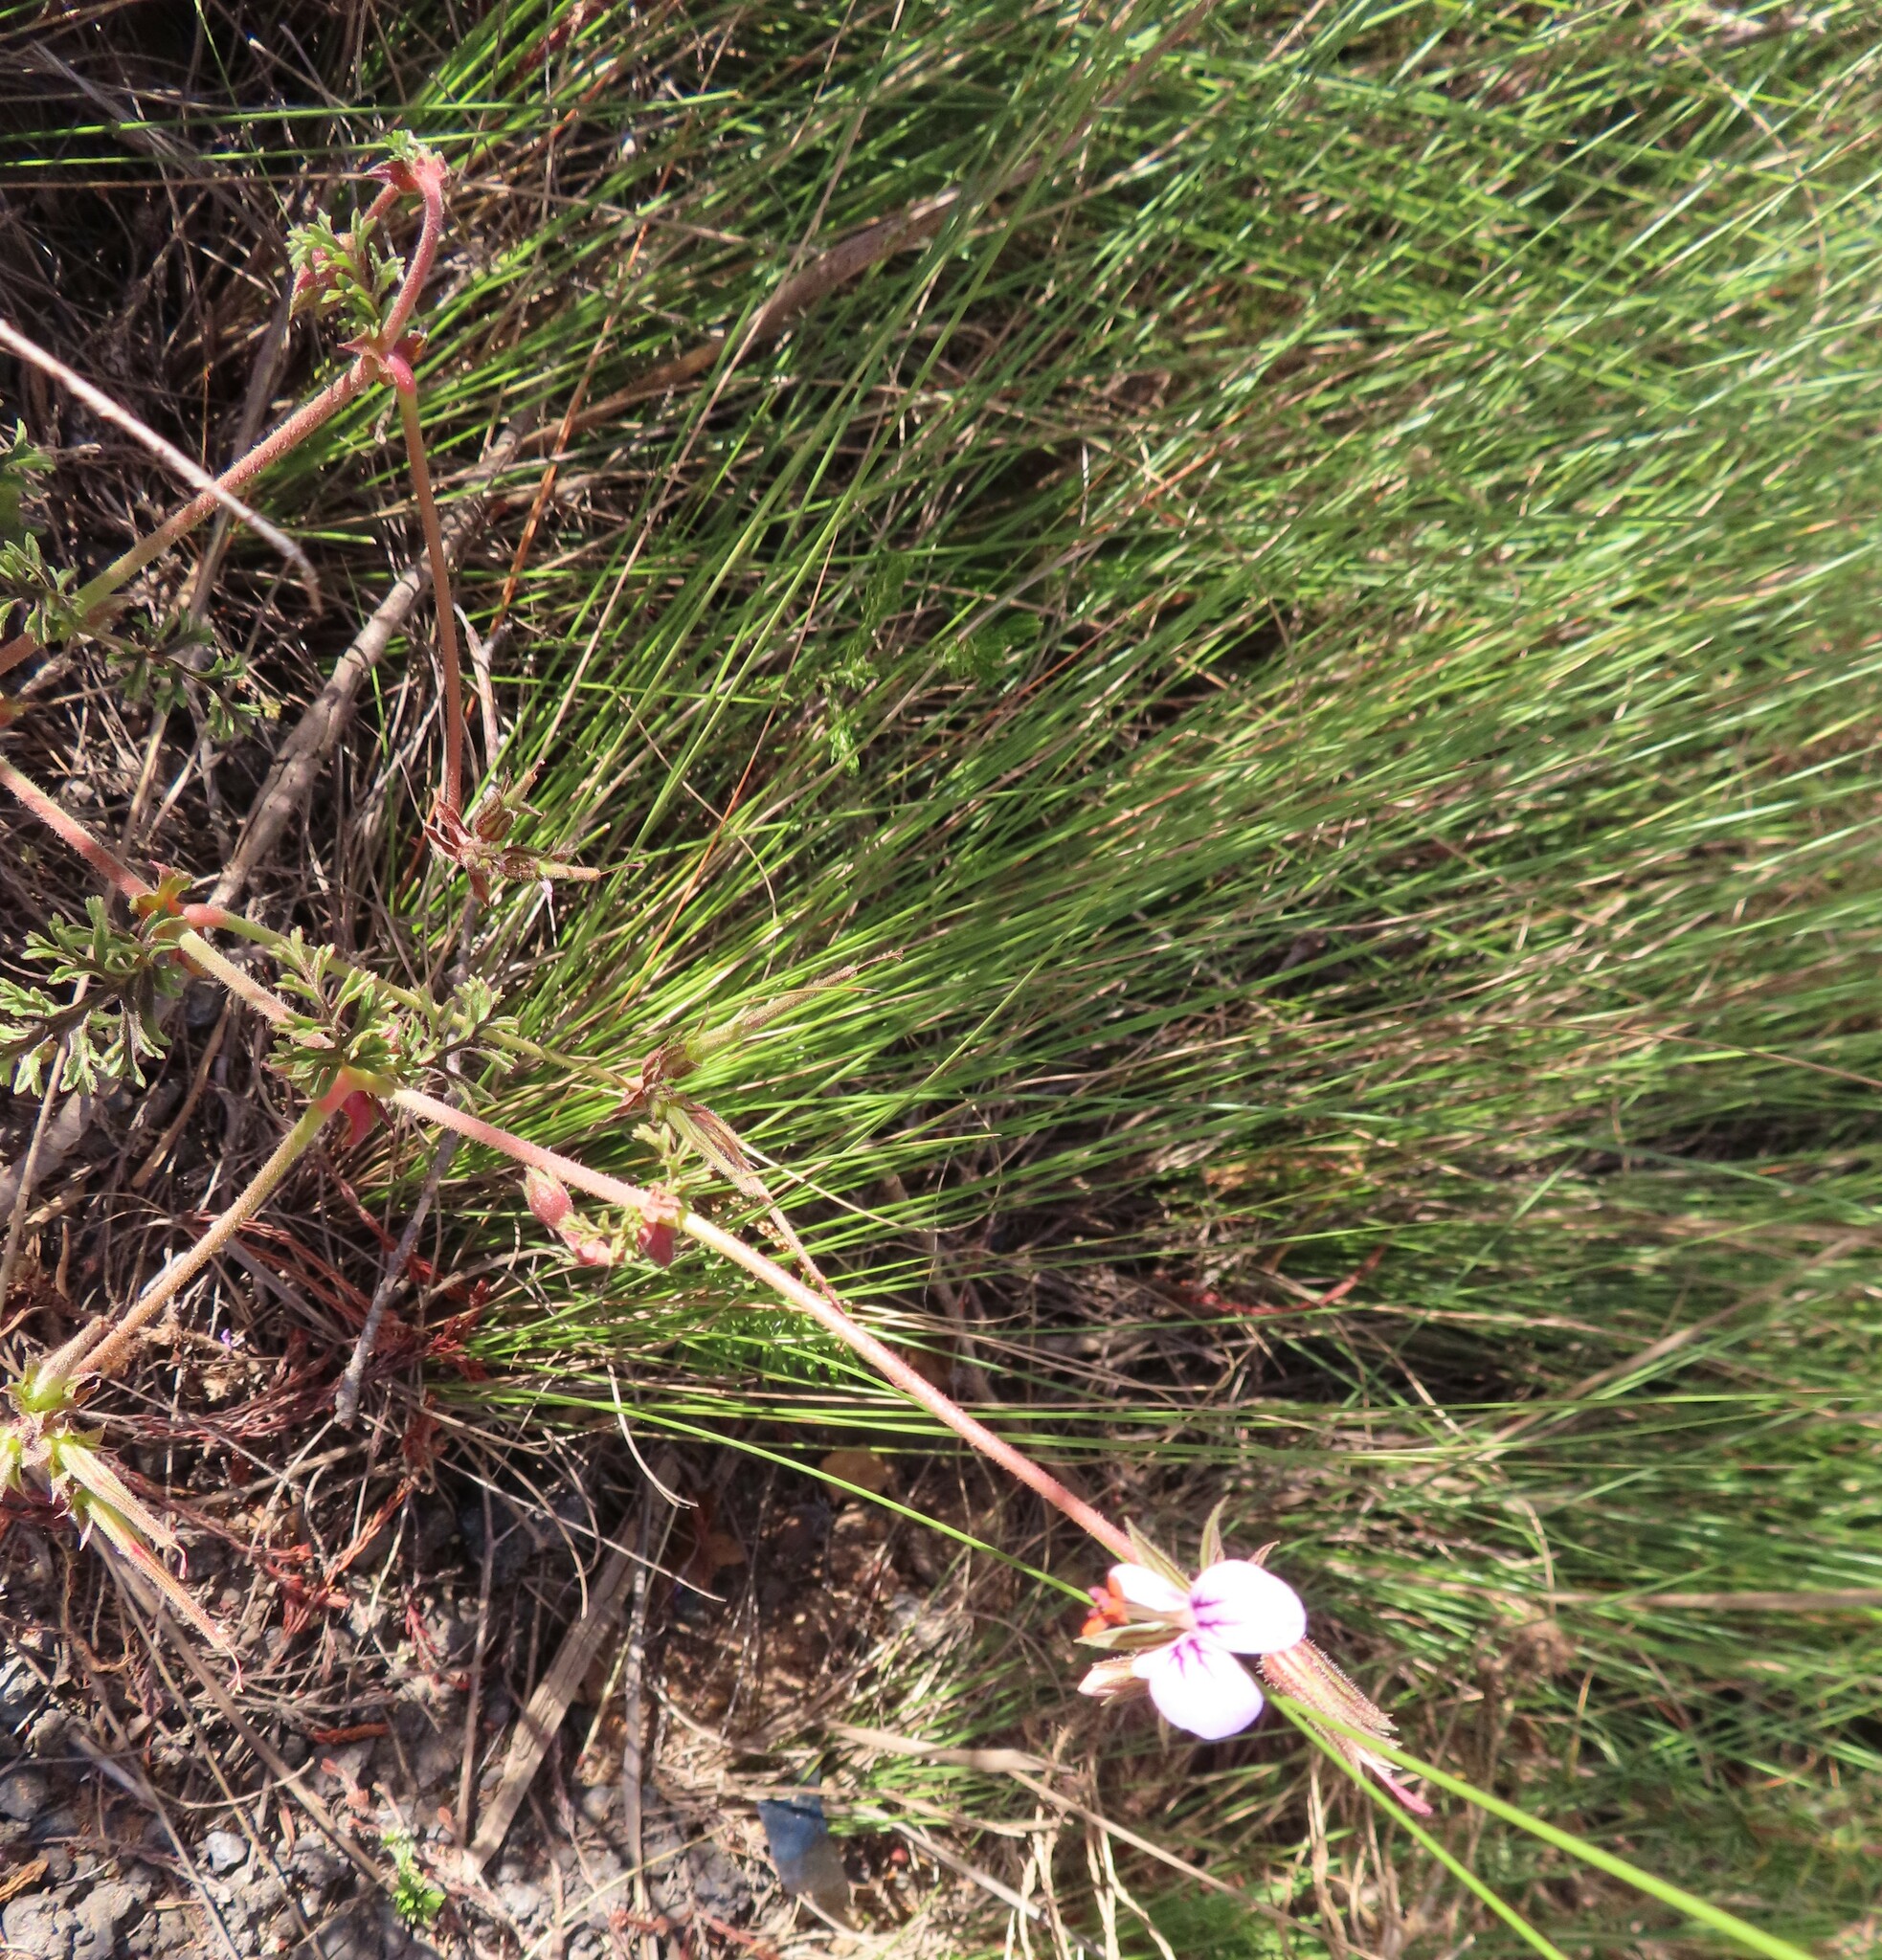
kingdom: Plantae
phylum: Tracheophyta
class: Magnoliopsida
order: Geraniales
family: Geraniaceae
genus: Pelargonium
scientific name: Pelargonium myrrhifolium
